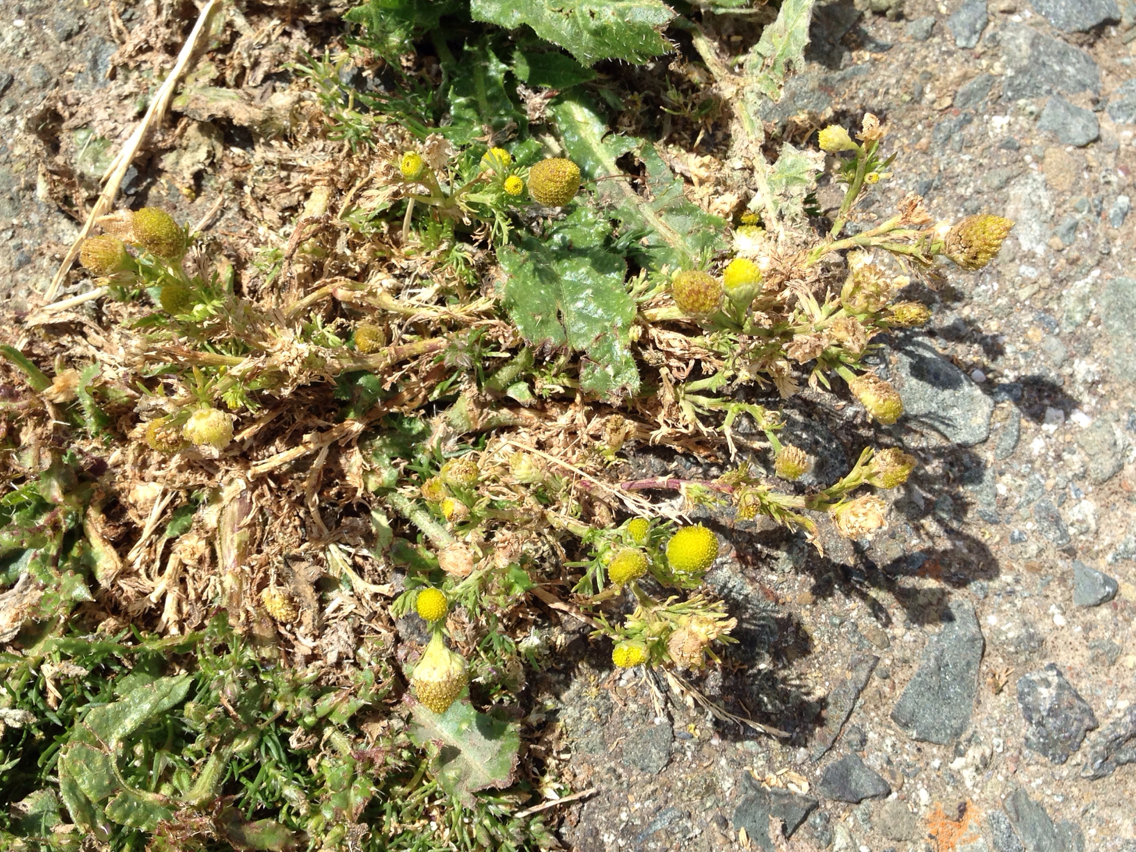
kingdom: Plantae
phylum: Tracheophyta
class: Magnoliopsida
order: Asterales
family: Asteraceae
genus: Matricaria
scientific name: Matricaria discoidea
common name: Disc mayweed
